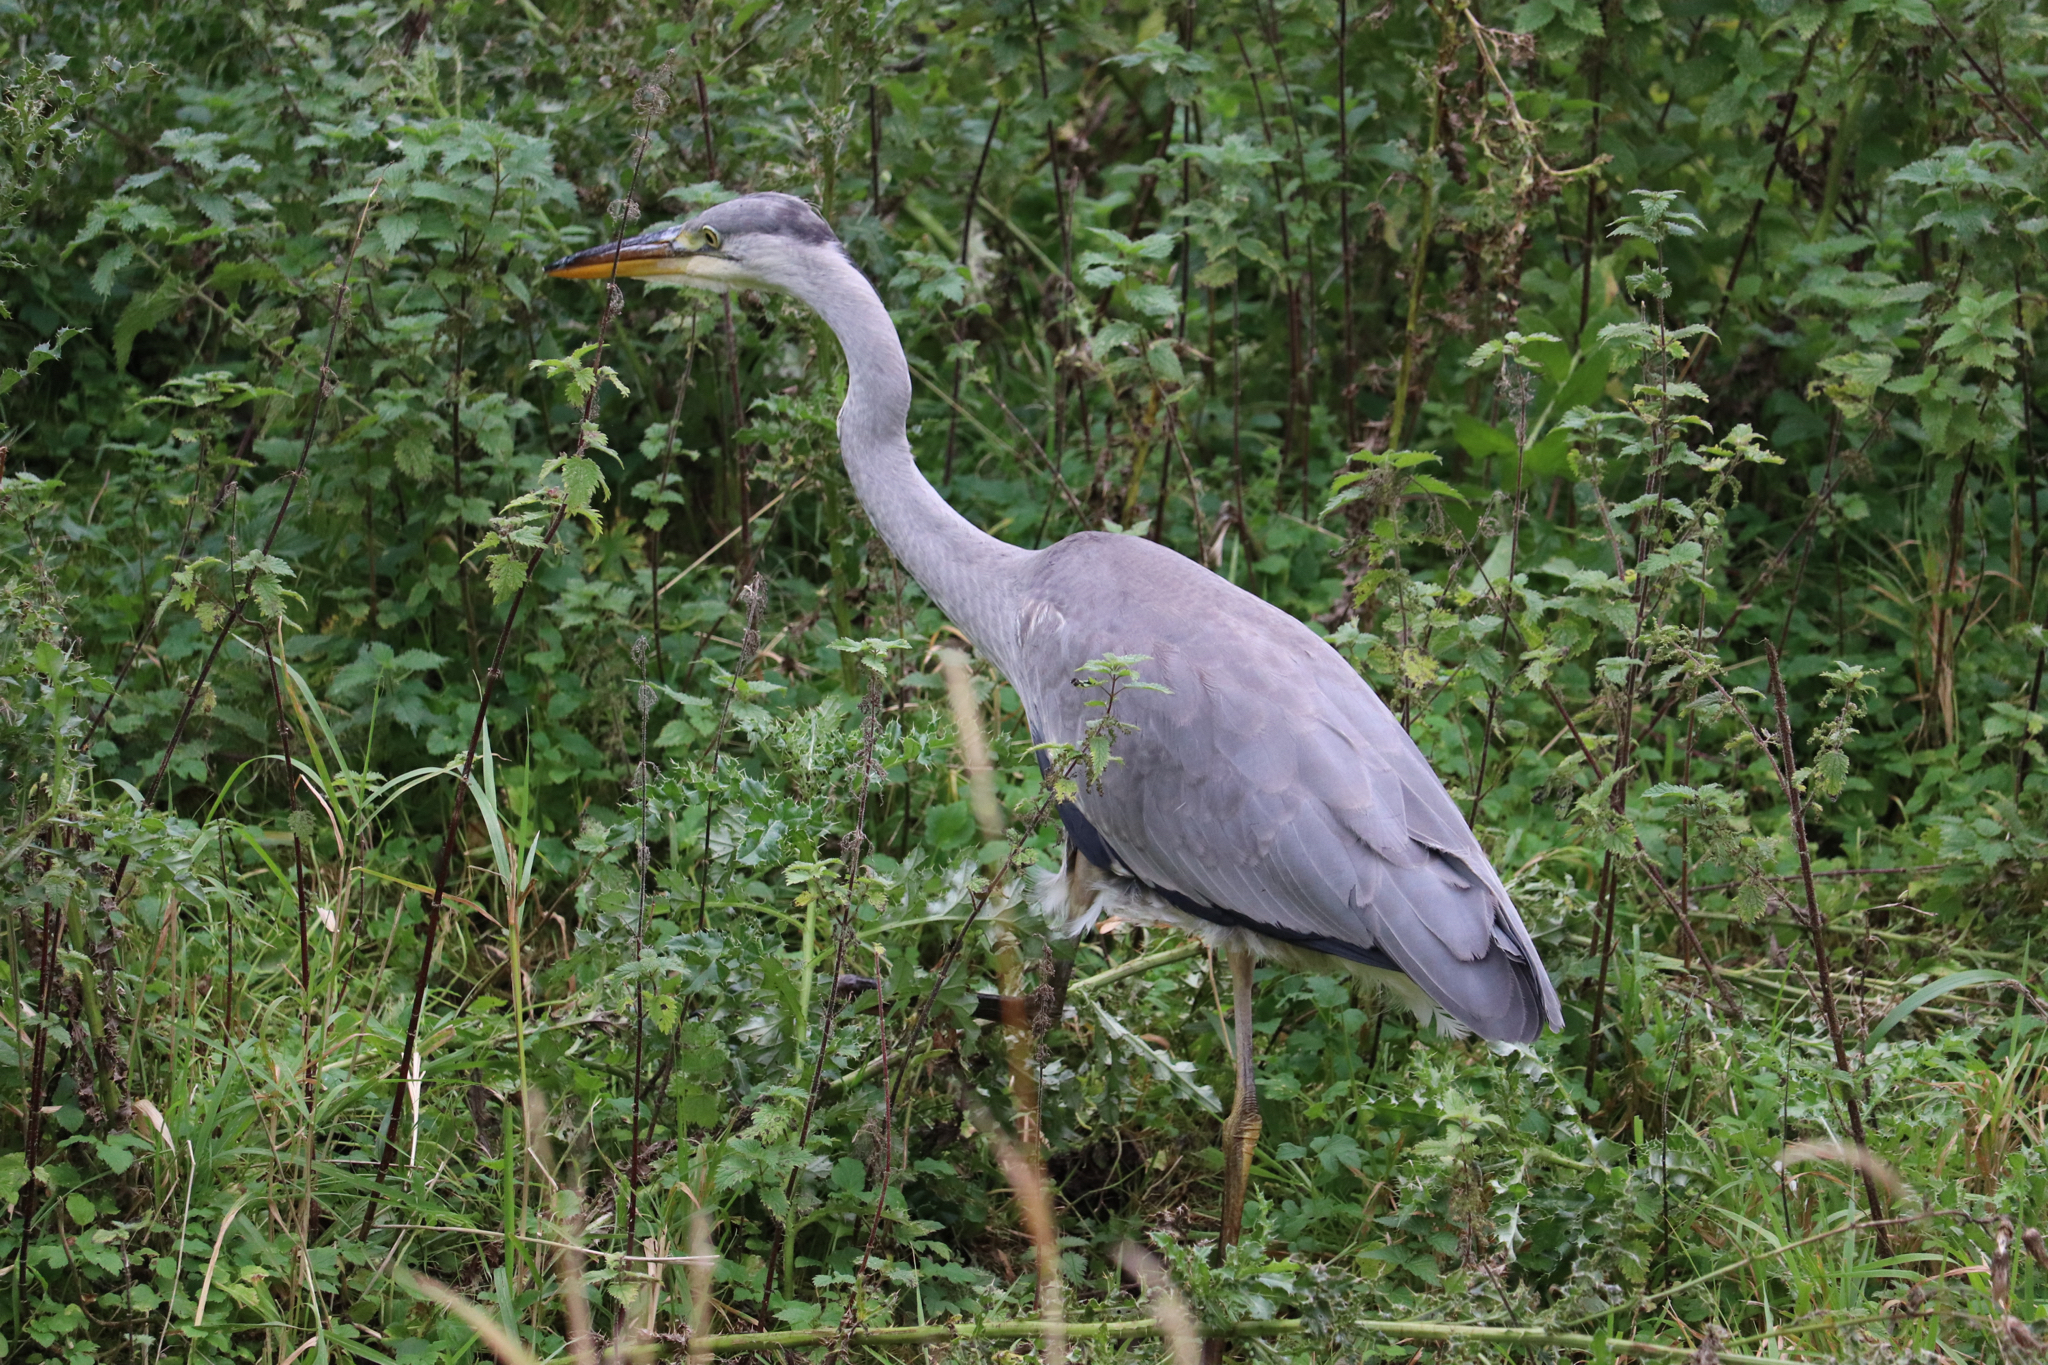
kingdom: Animalia
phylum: Chordata
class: Aves
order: Pelecaniformes
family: Ardeidae
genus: Ardea
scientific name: Ardea cinerea
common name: Grey heron
